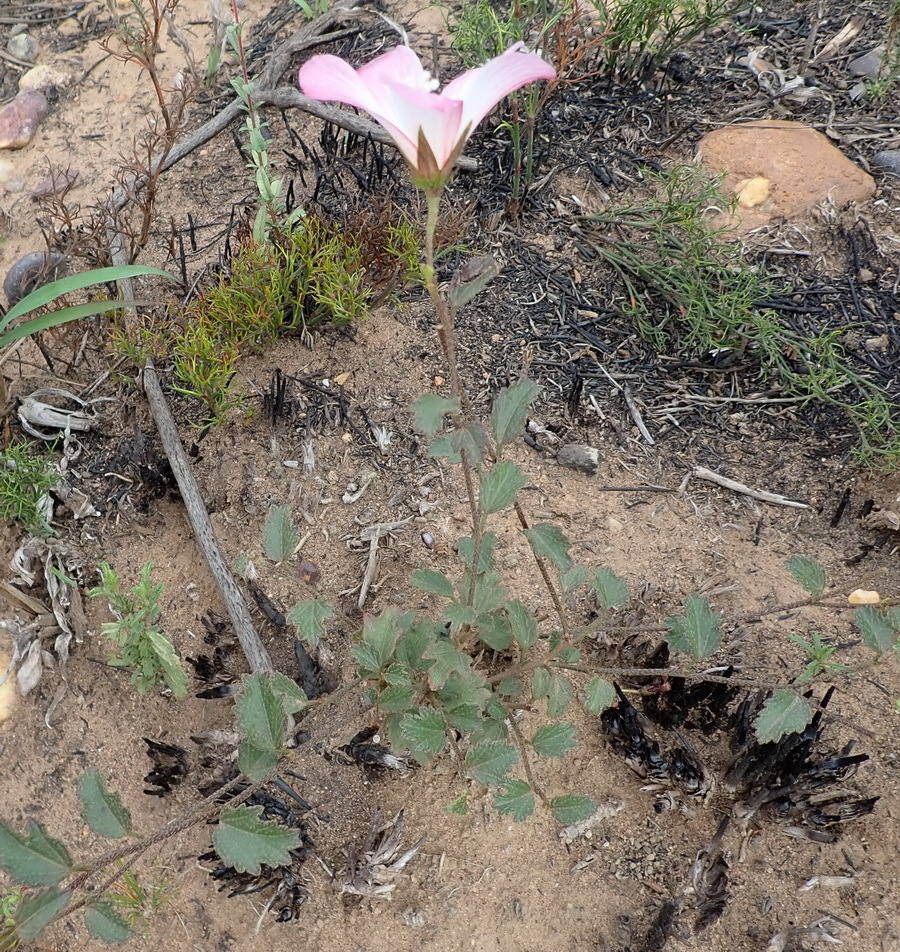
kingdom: Plantae
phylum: Tracheophyta
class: Magnoliopsida
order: Malvales
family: Malvaceae
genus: Hibiscus
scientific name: Hibiscus pusillus
